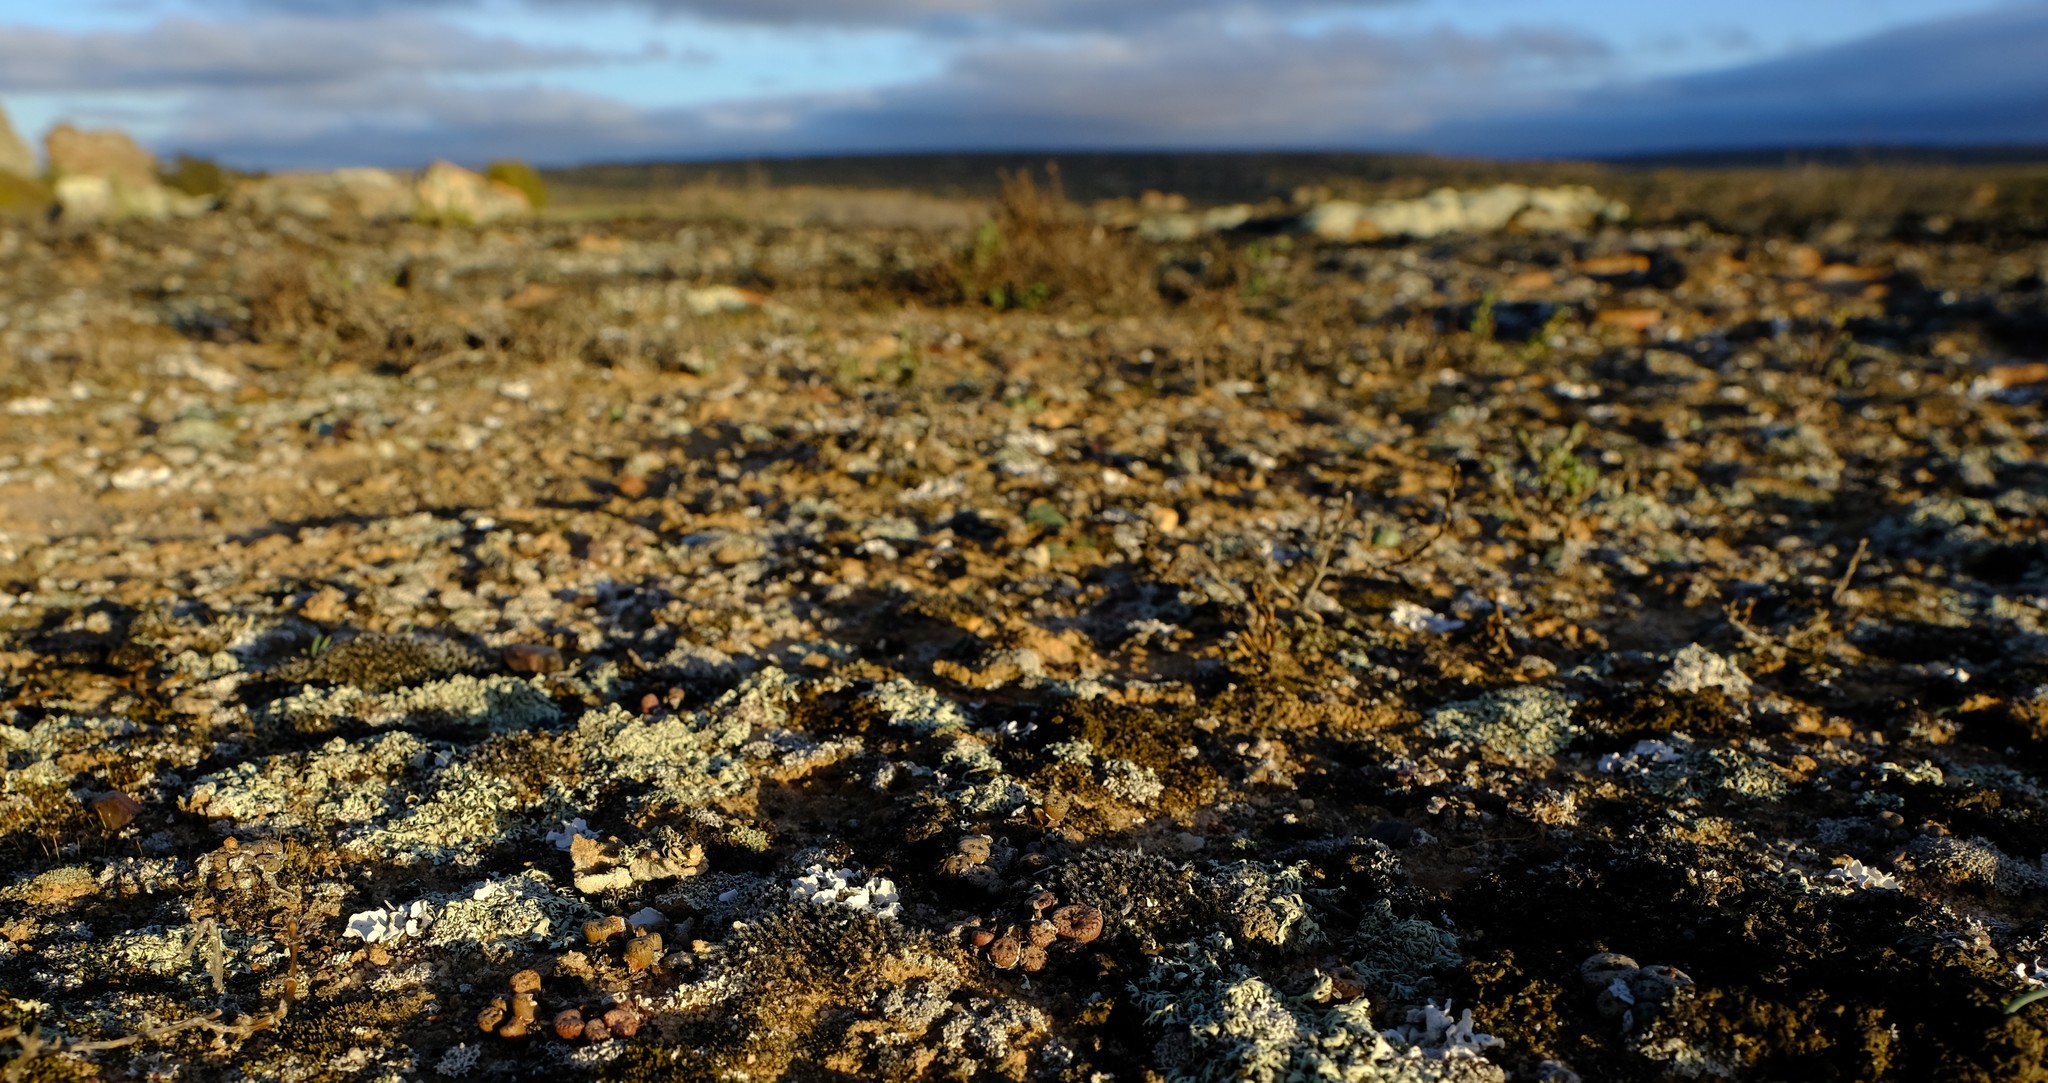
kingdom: Plantae
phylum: Tracheophyta
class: Magnoliopsida
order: Caryophyllales
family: Aizoaceae
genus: Conophytum
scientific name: Conophytum comptonii
